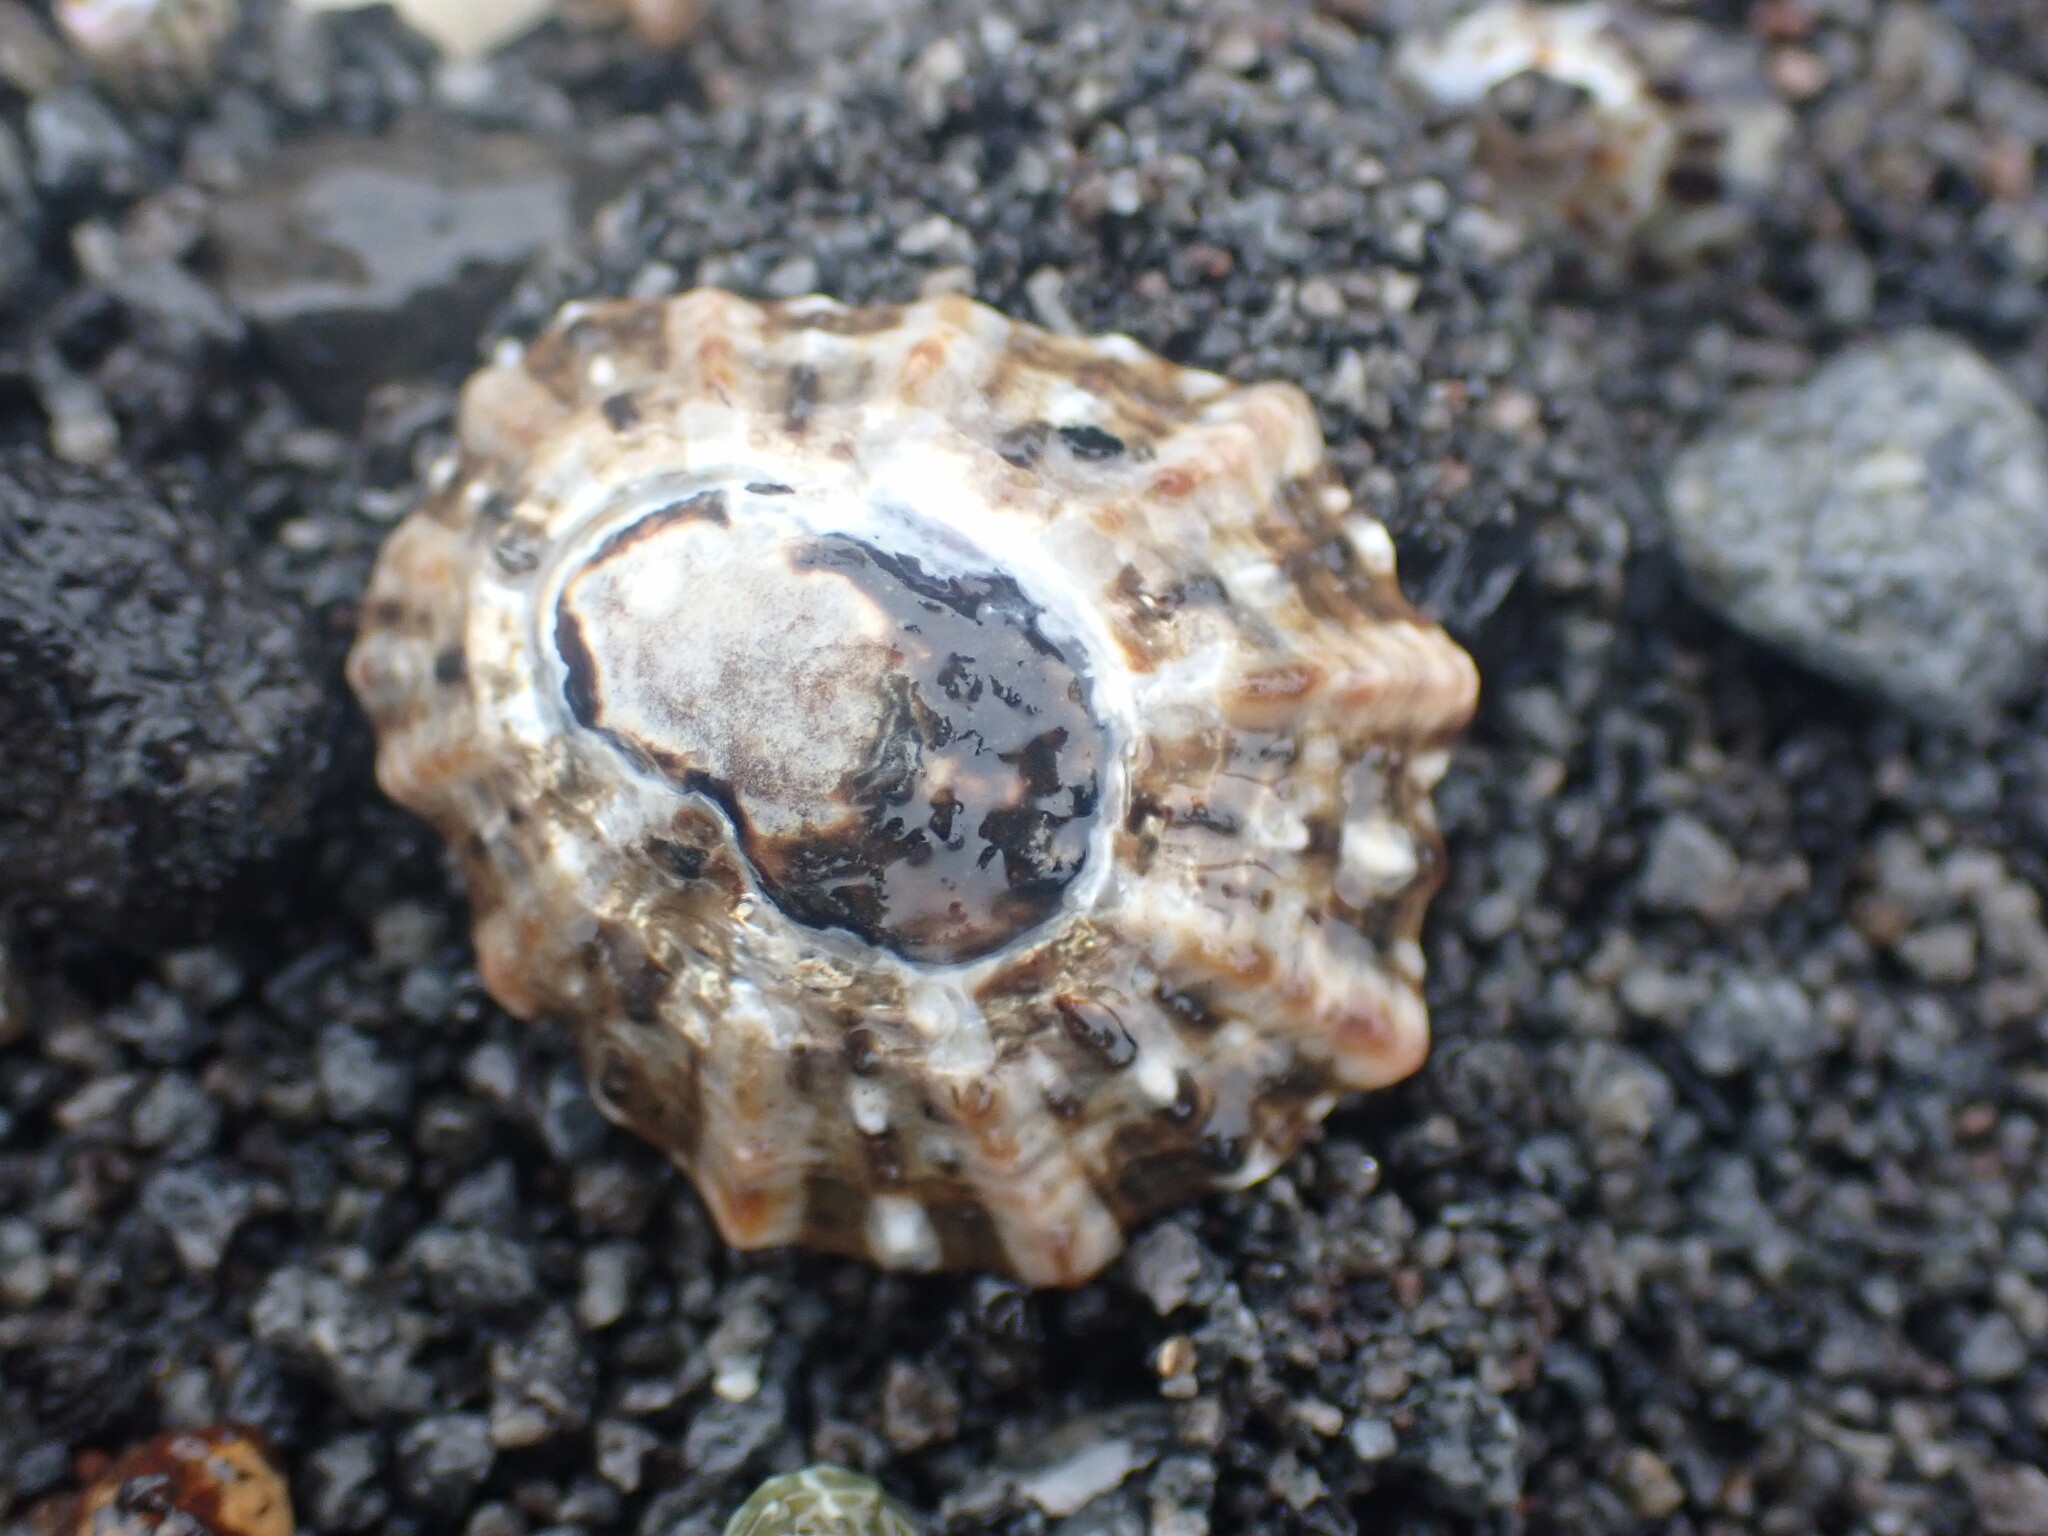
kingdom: Animalia
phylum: Mollusca
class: Gastropoda
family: Nacellidae
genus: Cellana
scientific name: Cellana ornata
